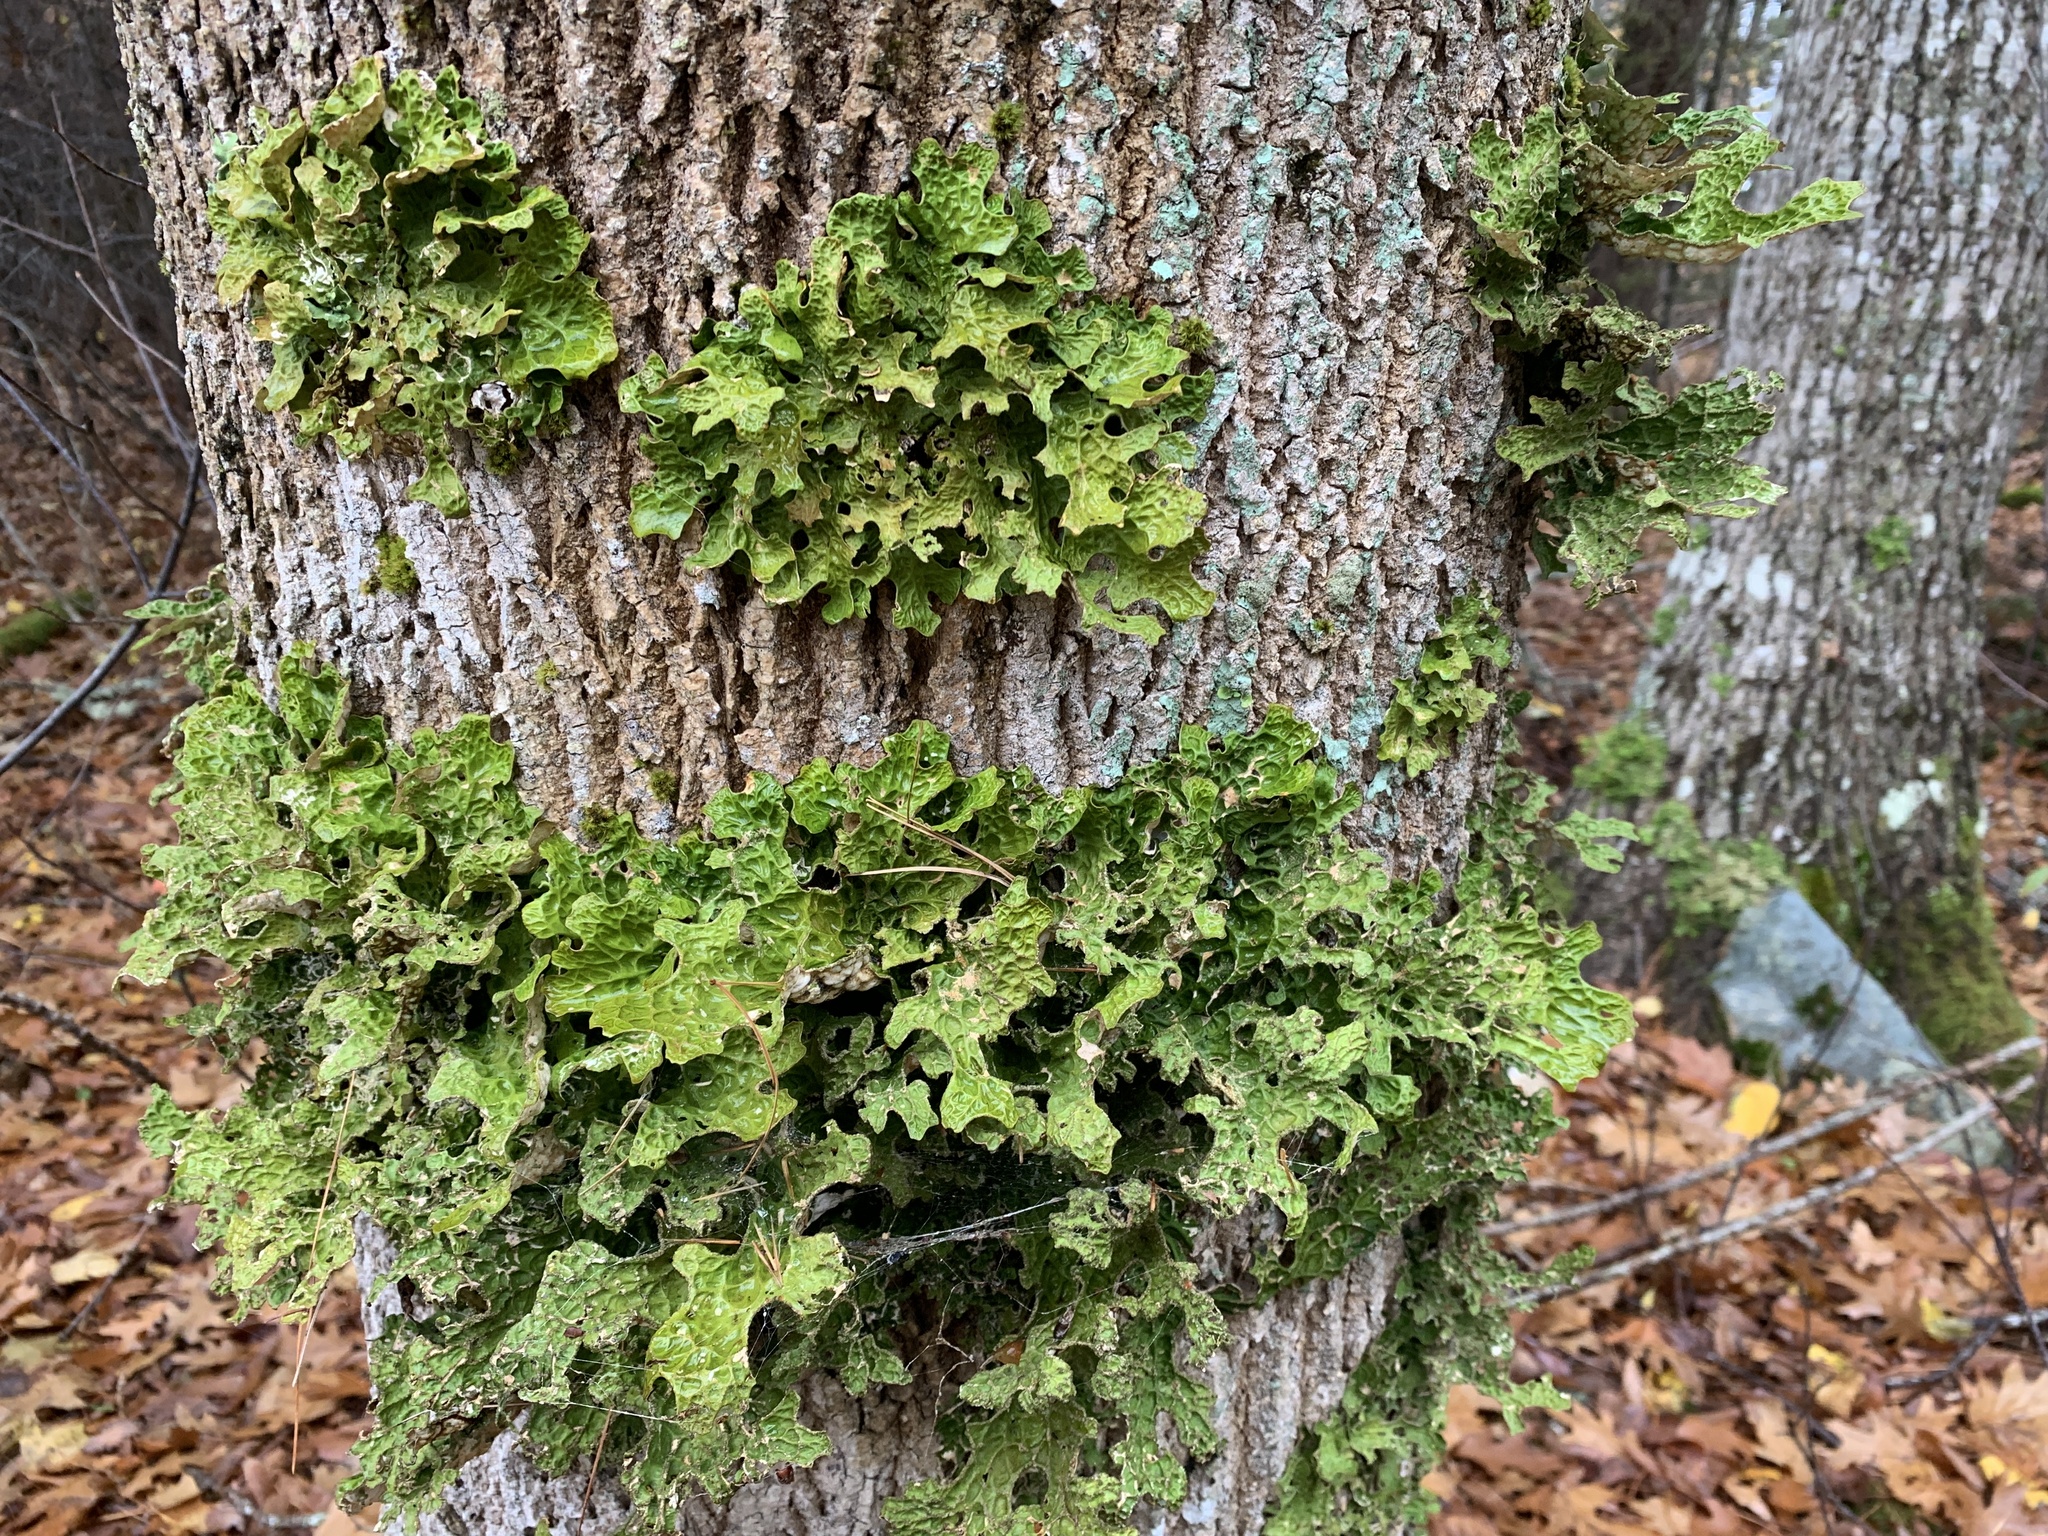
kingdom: Fungi
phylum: Ascomycota
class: Lecanoromycetes
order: Peltigerales
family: Lobariaceae
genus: Lobaria
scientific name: Lobaria pulmonaria
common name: Lungwort
